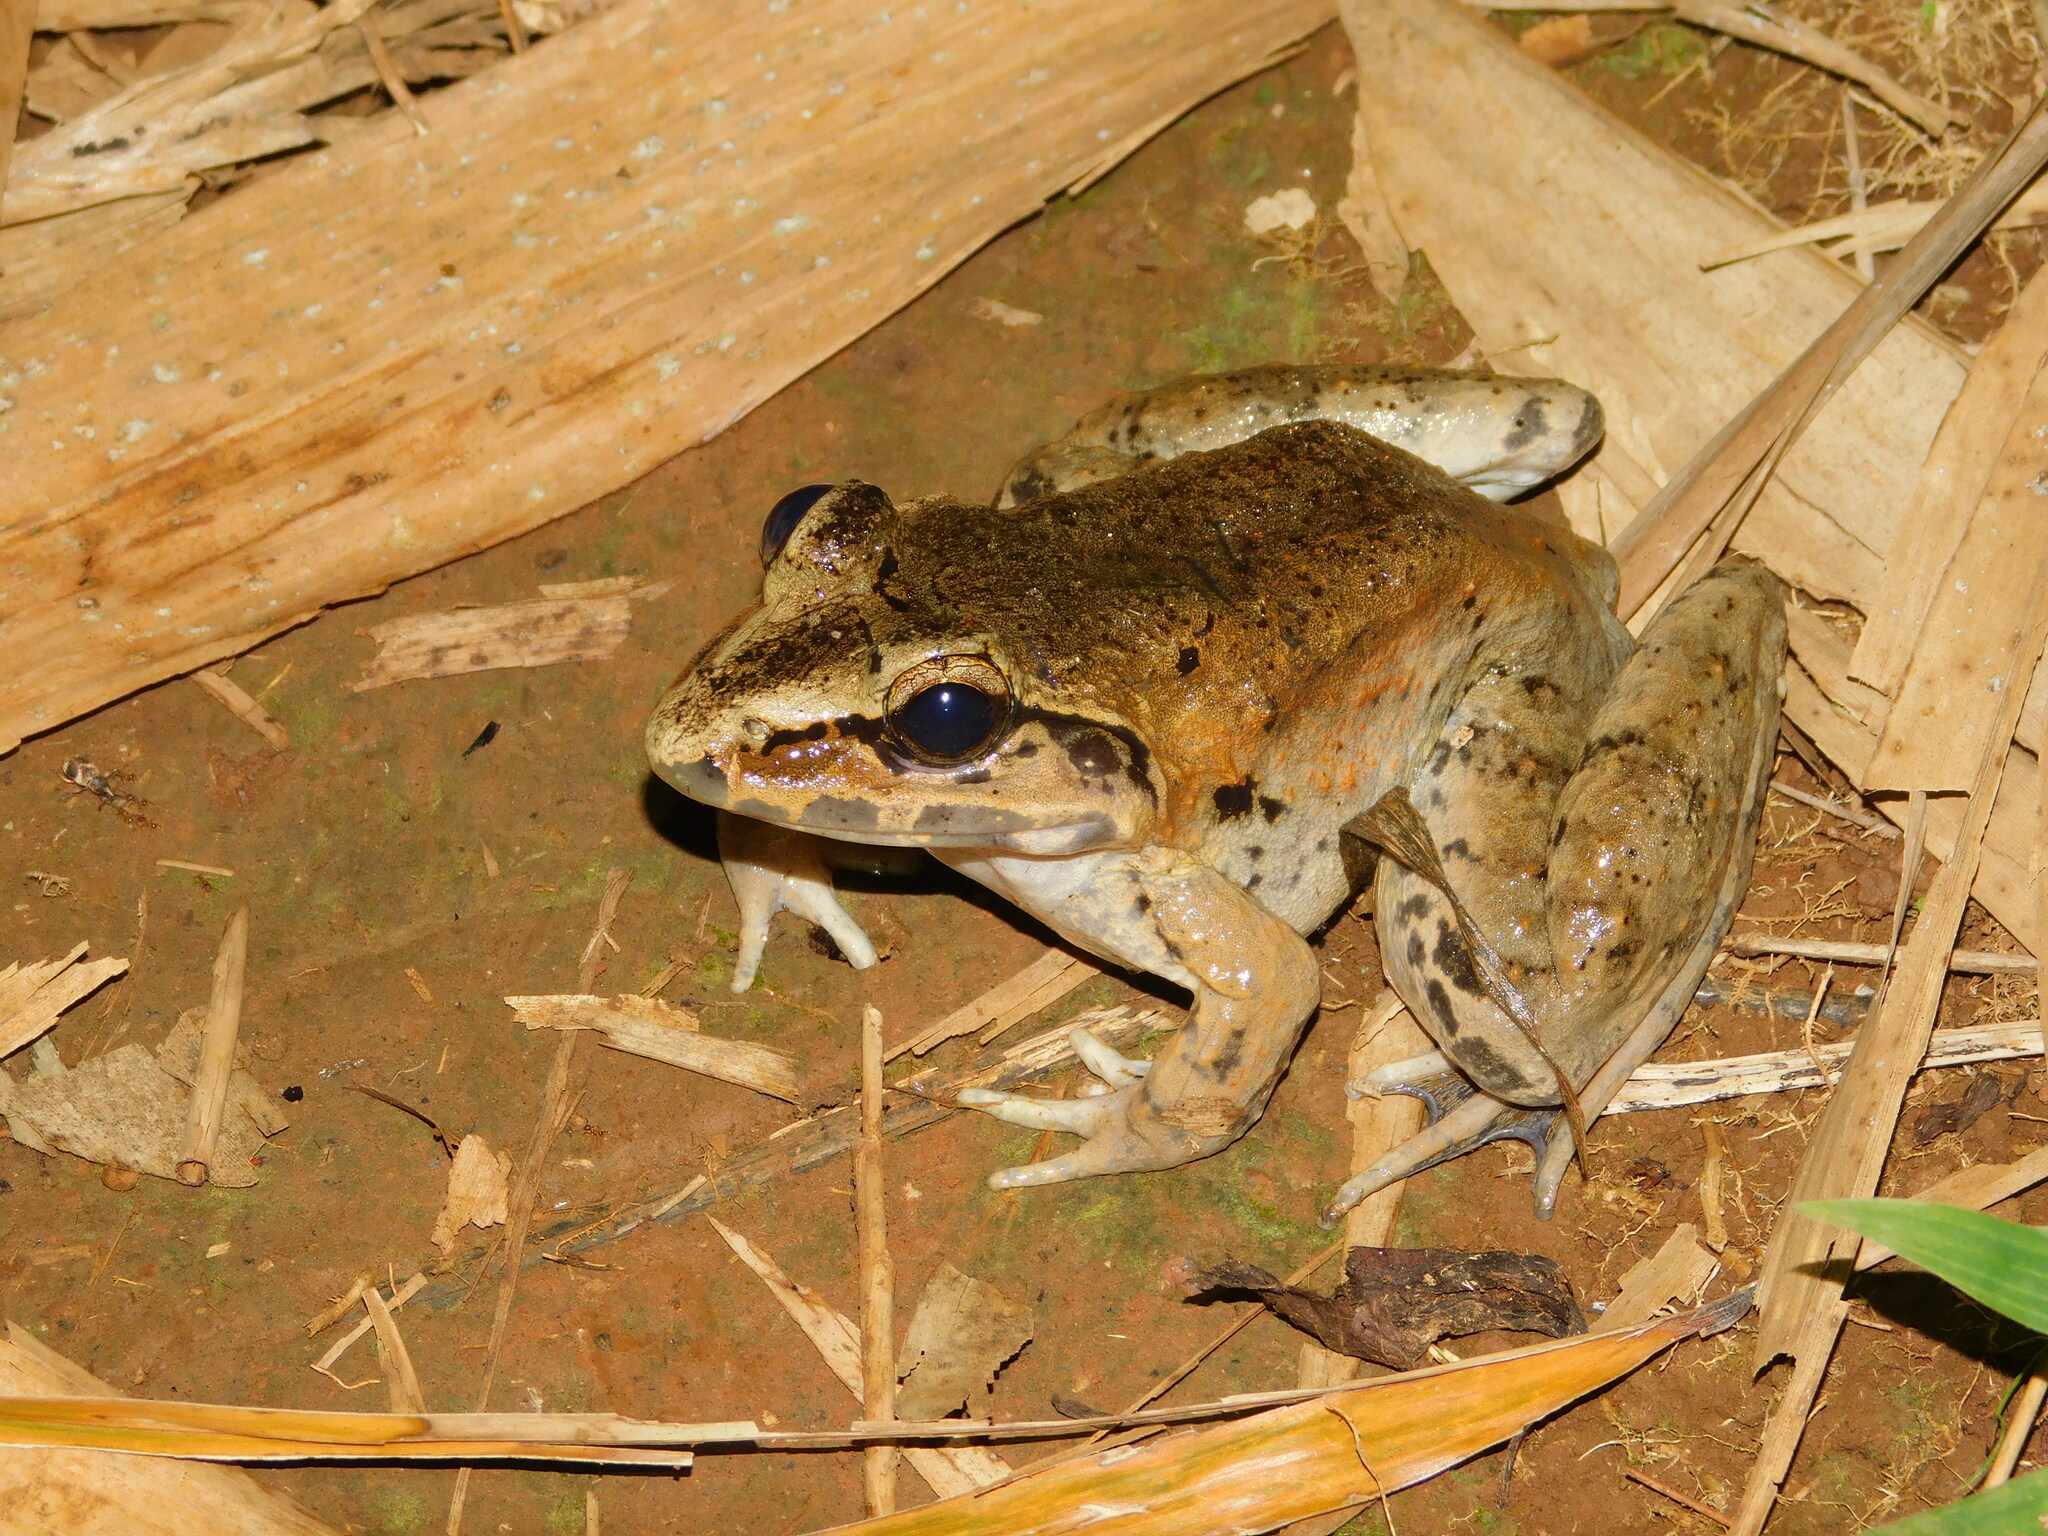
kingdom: Animalia
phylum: Chordata
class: Amphibia
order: Anura
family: Dicroglossidae
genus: Limnonectes
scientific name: Limnonectes macrodon
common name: Fanged river frog
